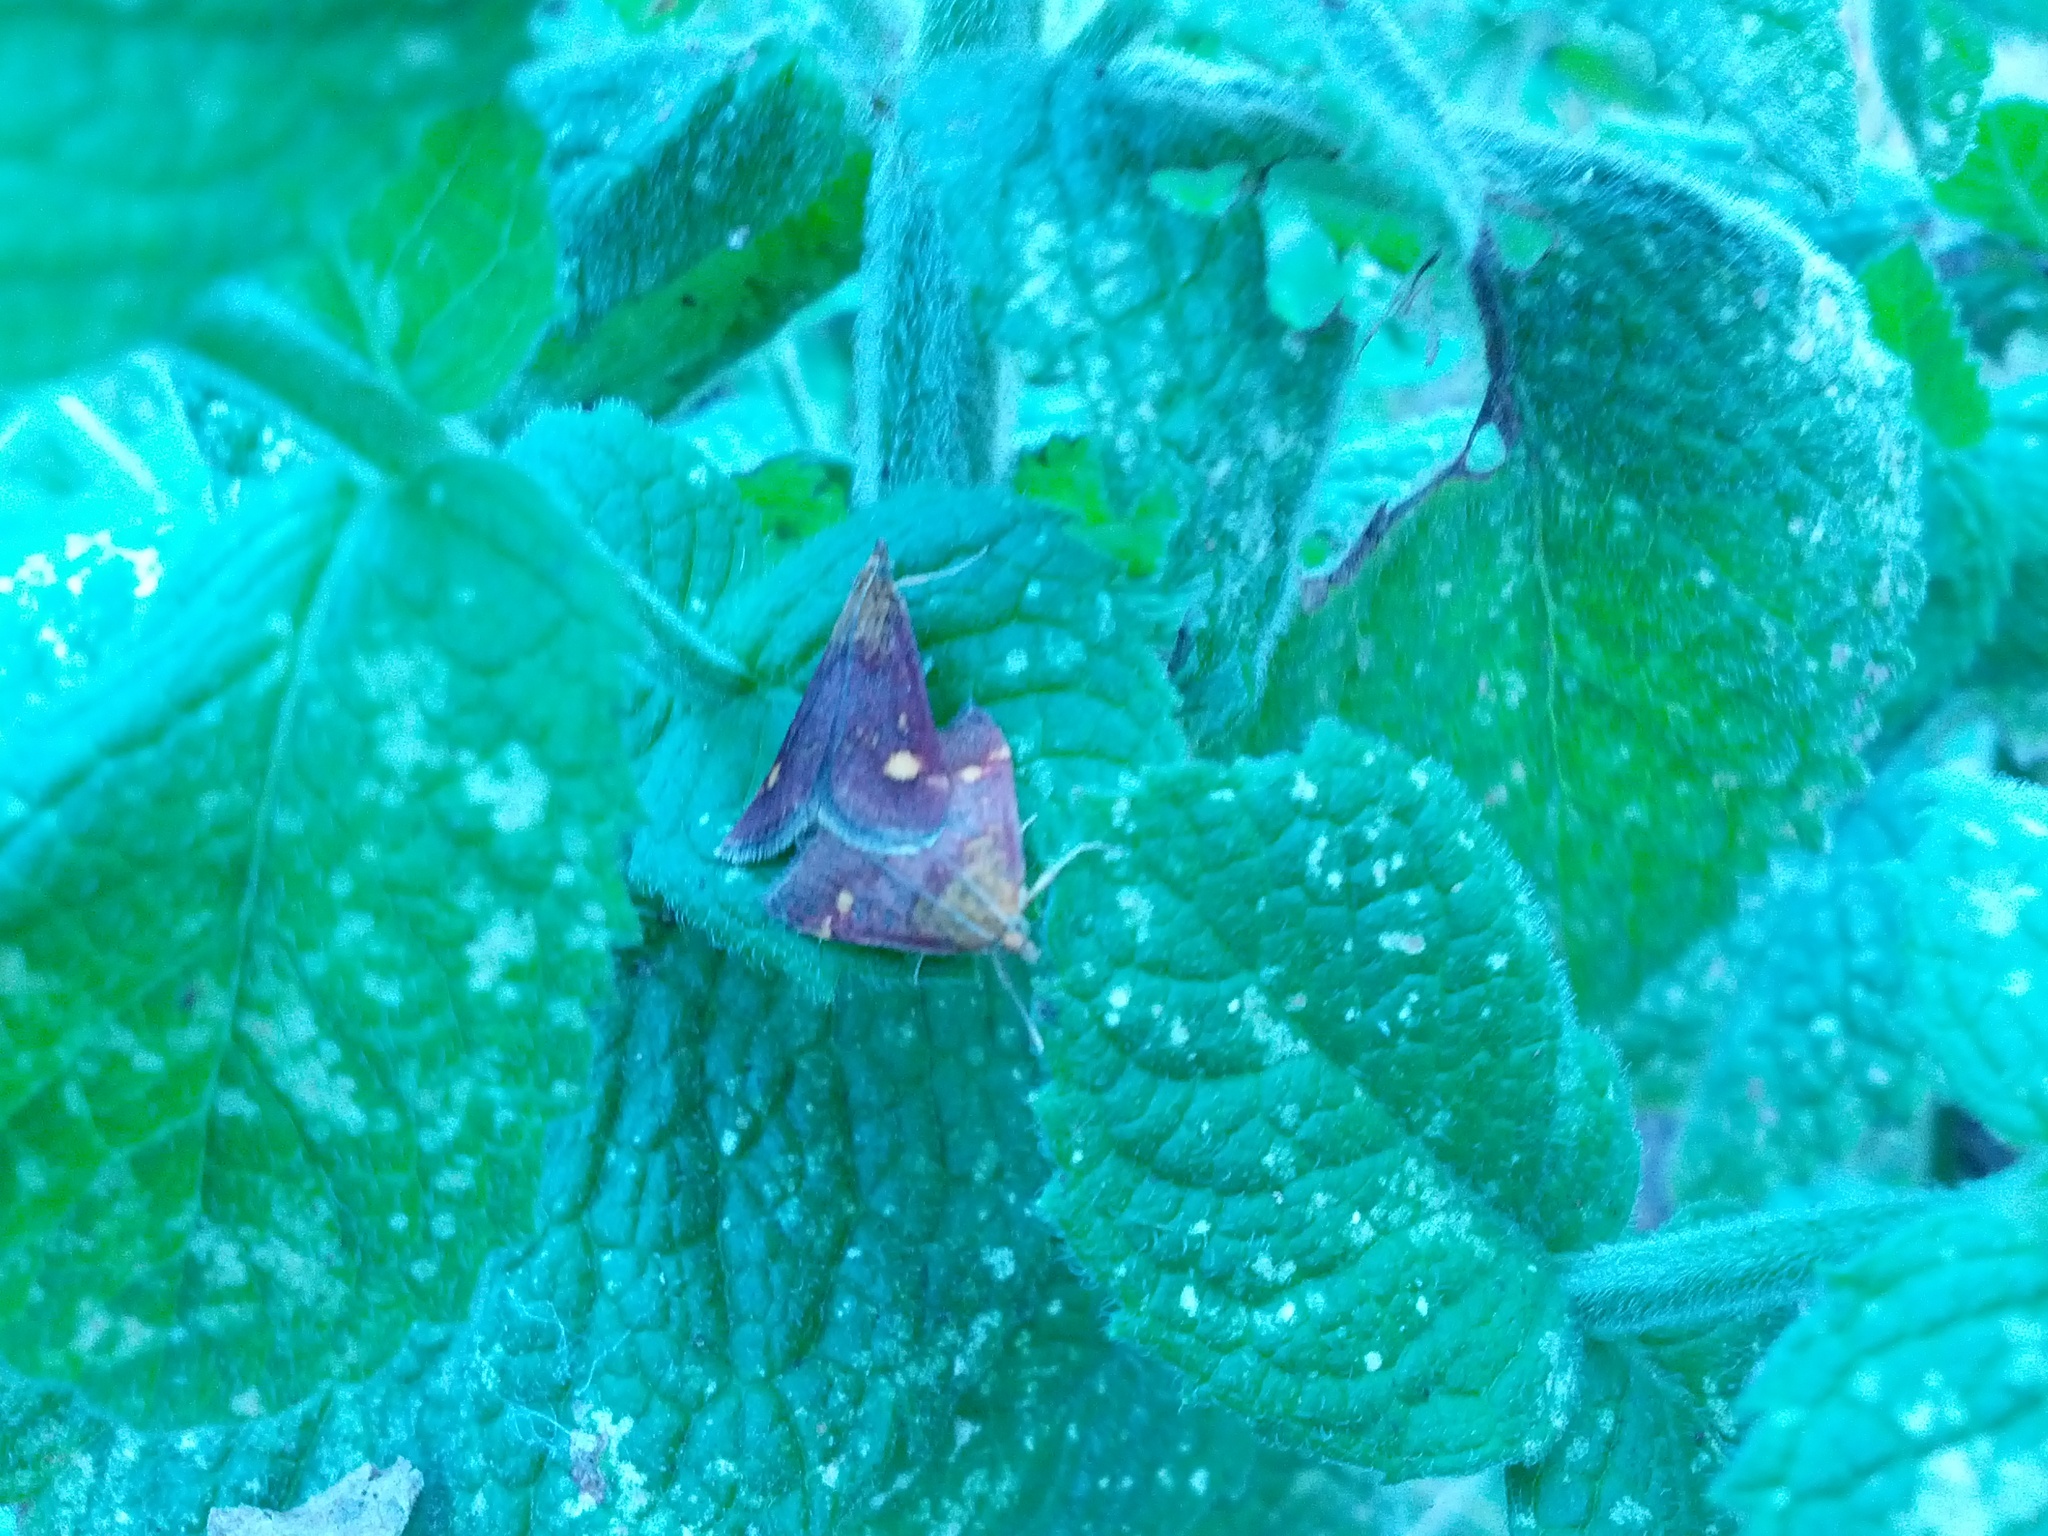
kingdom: Animalia
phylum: Arthropoda
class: Insecta
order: Lepidoptera
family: Crambidae
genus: Pyrausta
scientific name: Pyrausta aurata
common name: Small purple & gold
